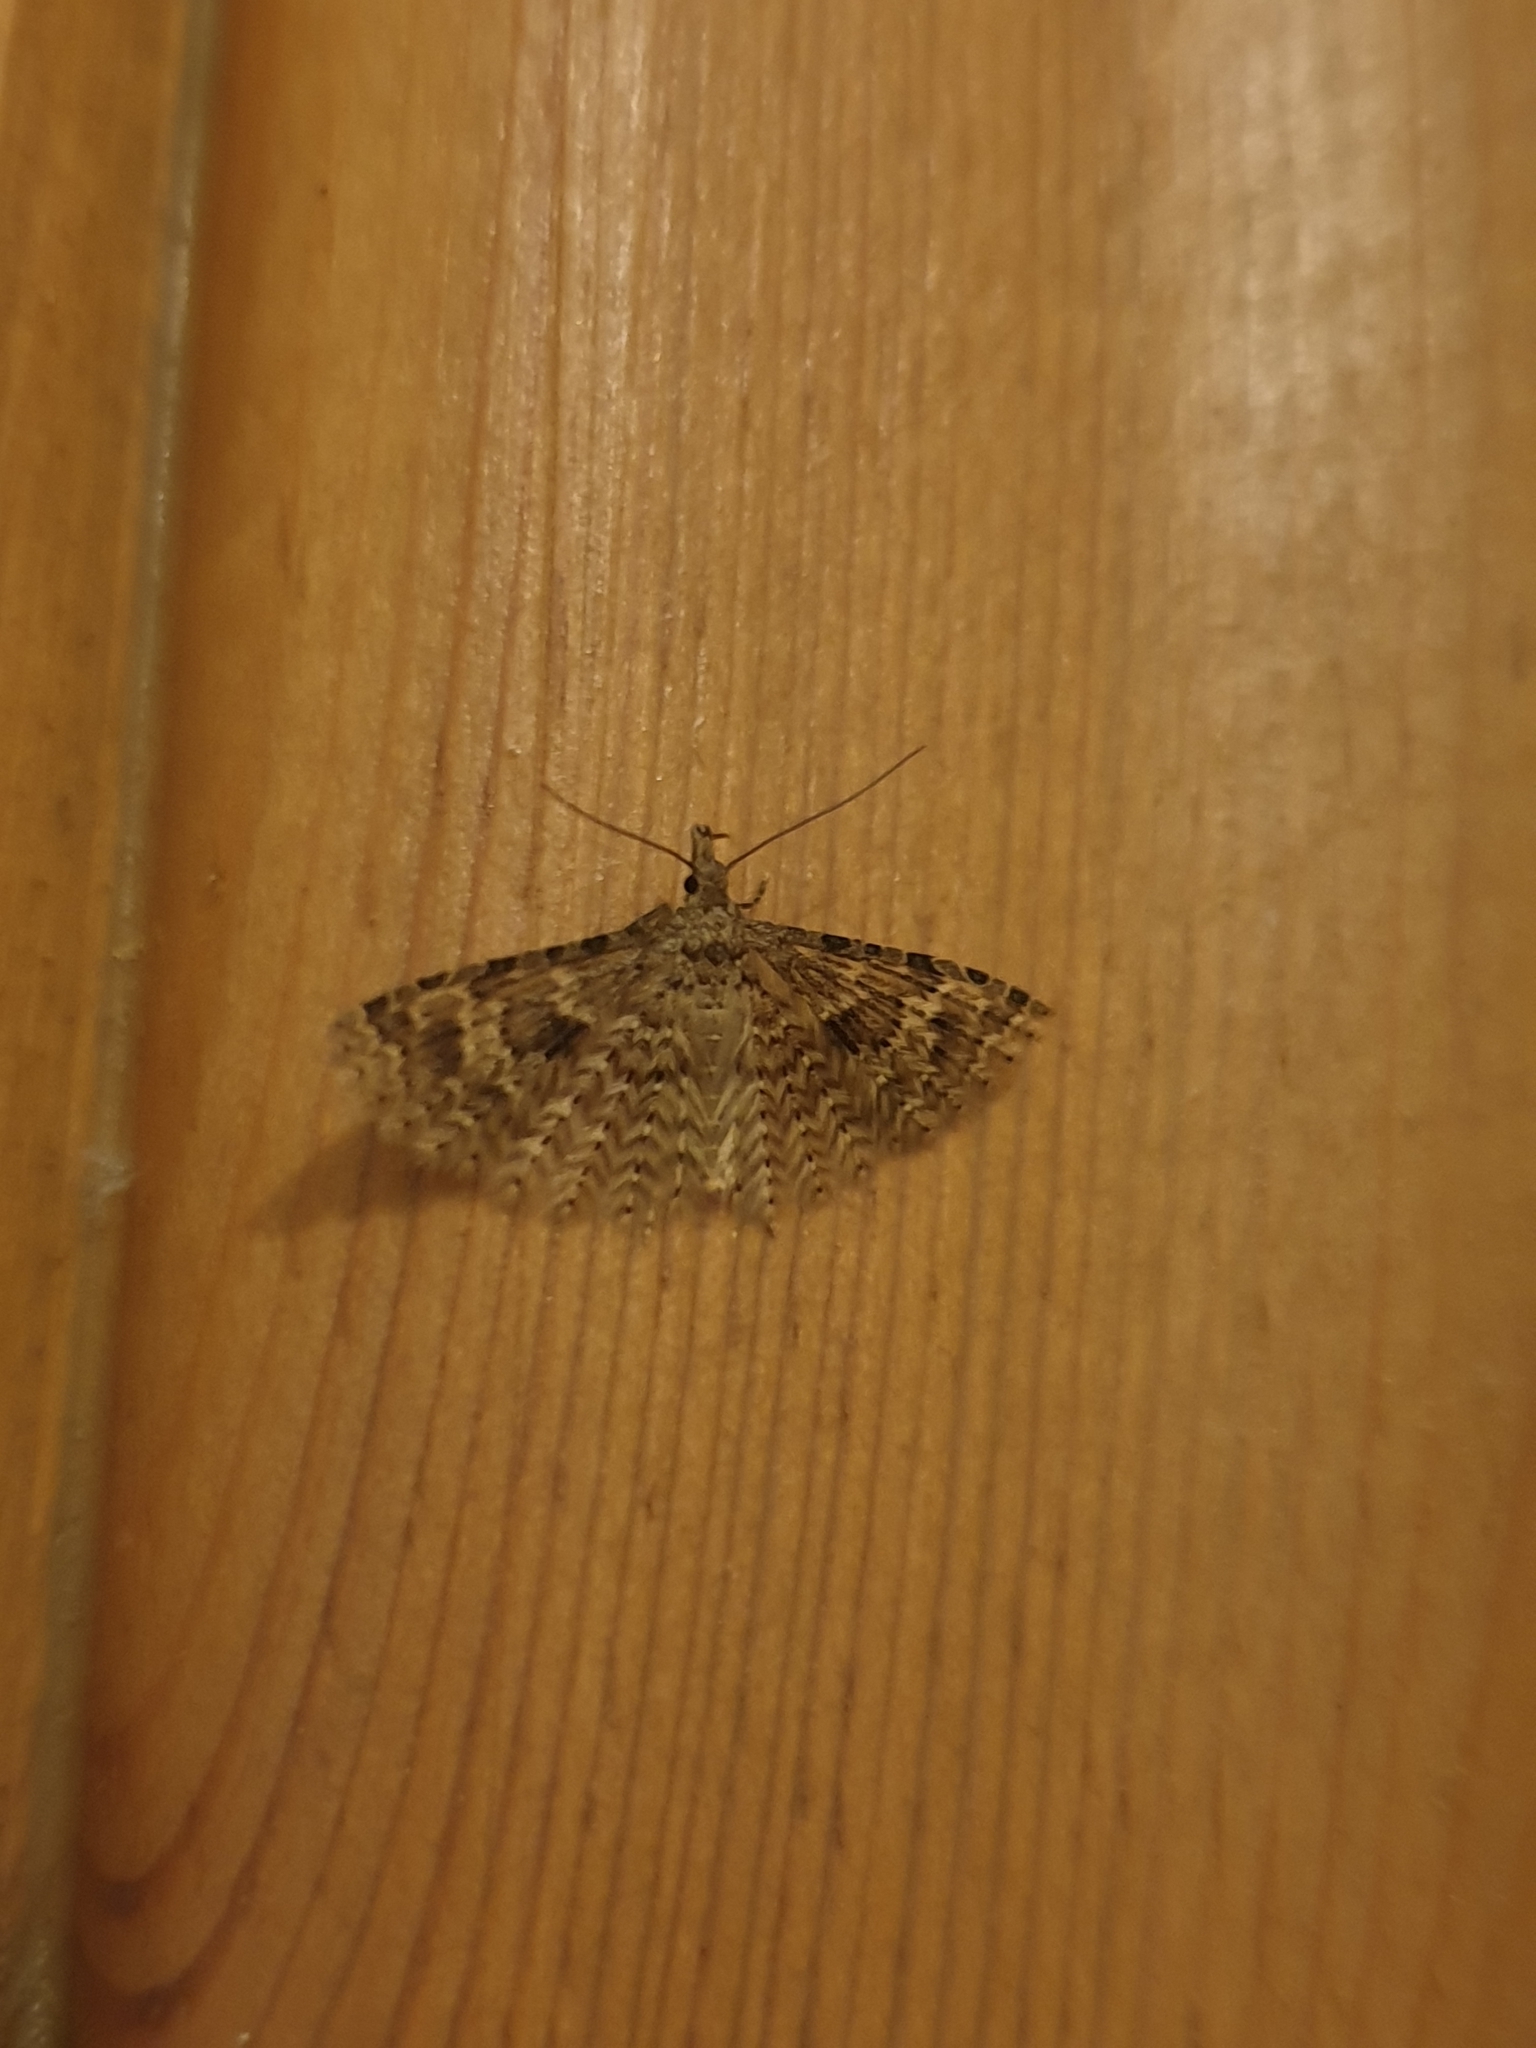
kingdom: Animalia
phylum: Arthropoda
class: Insecta
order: Lepidoptera
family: Alucitidae
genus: Alucita
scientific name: Alucita hexadactyla
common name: Twenty-plume moth
